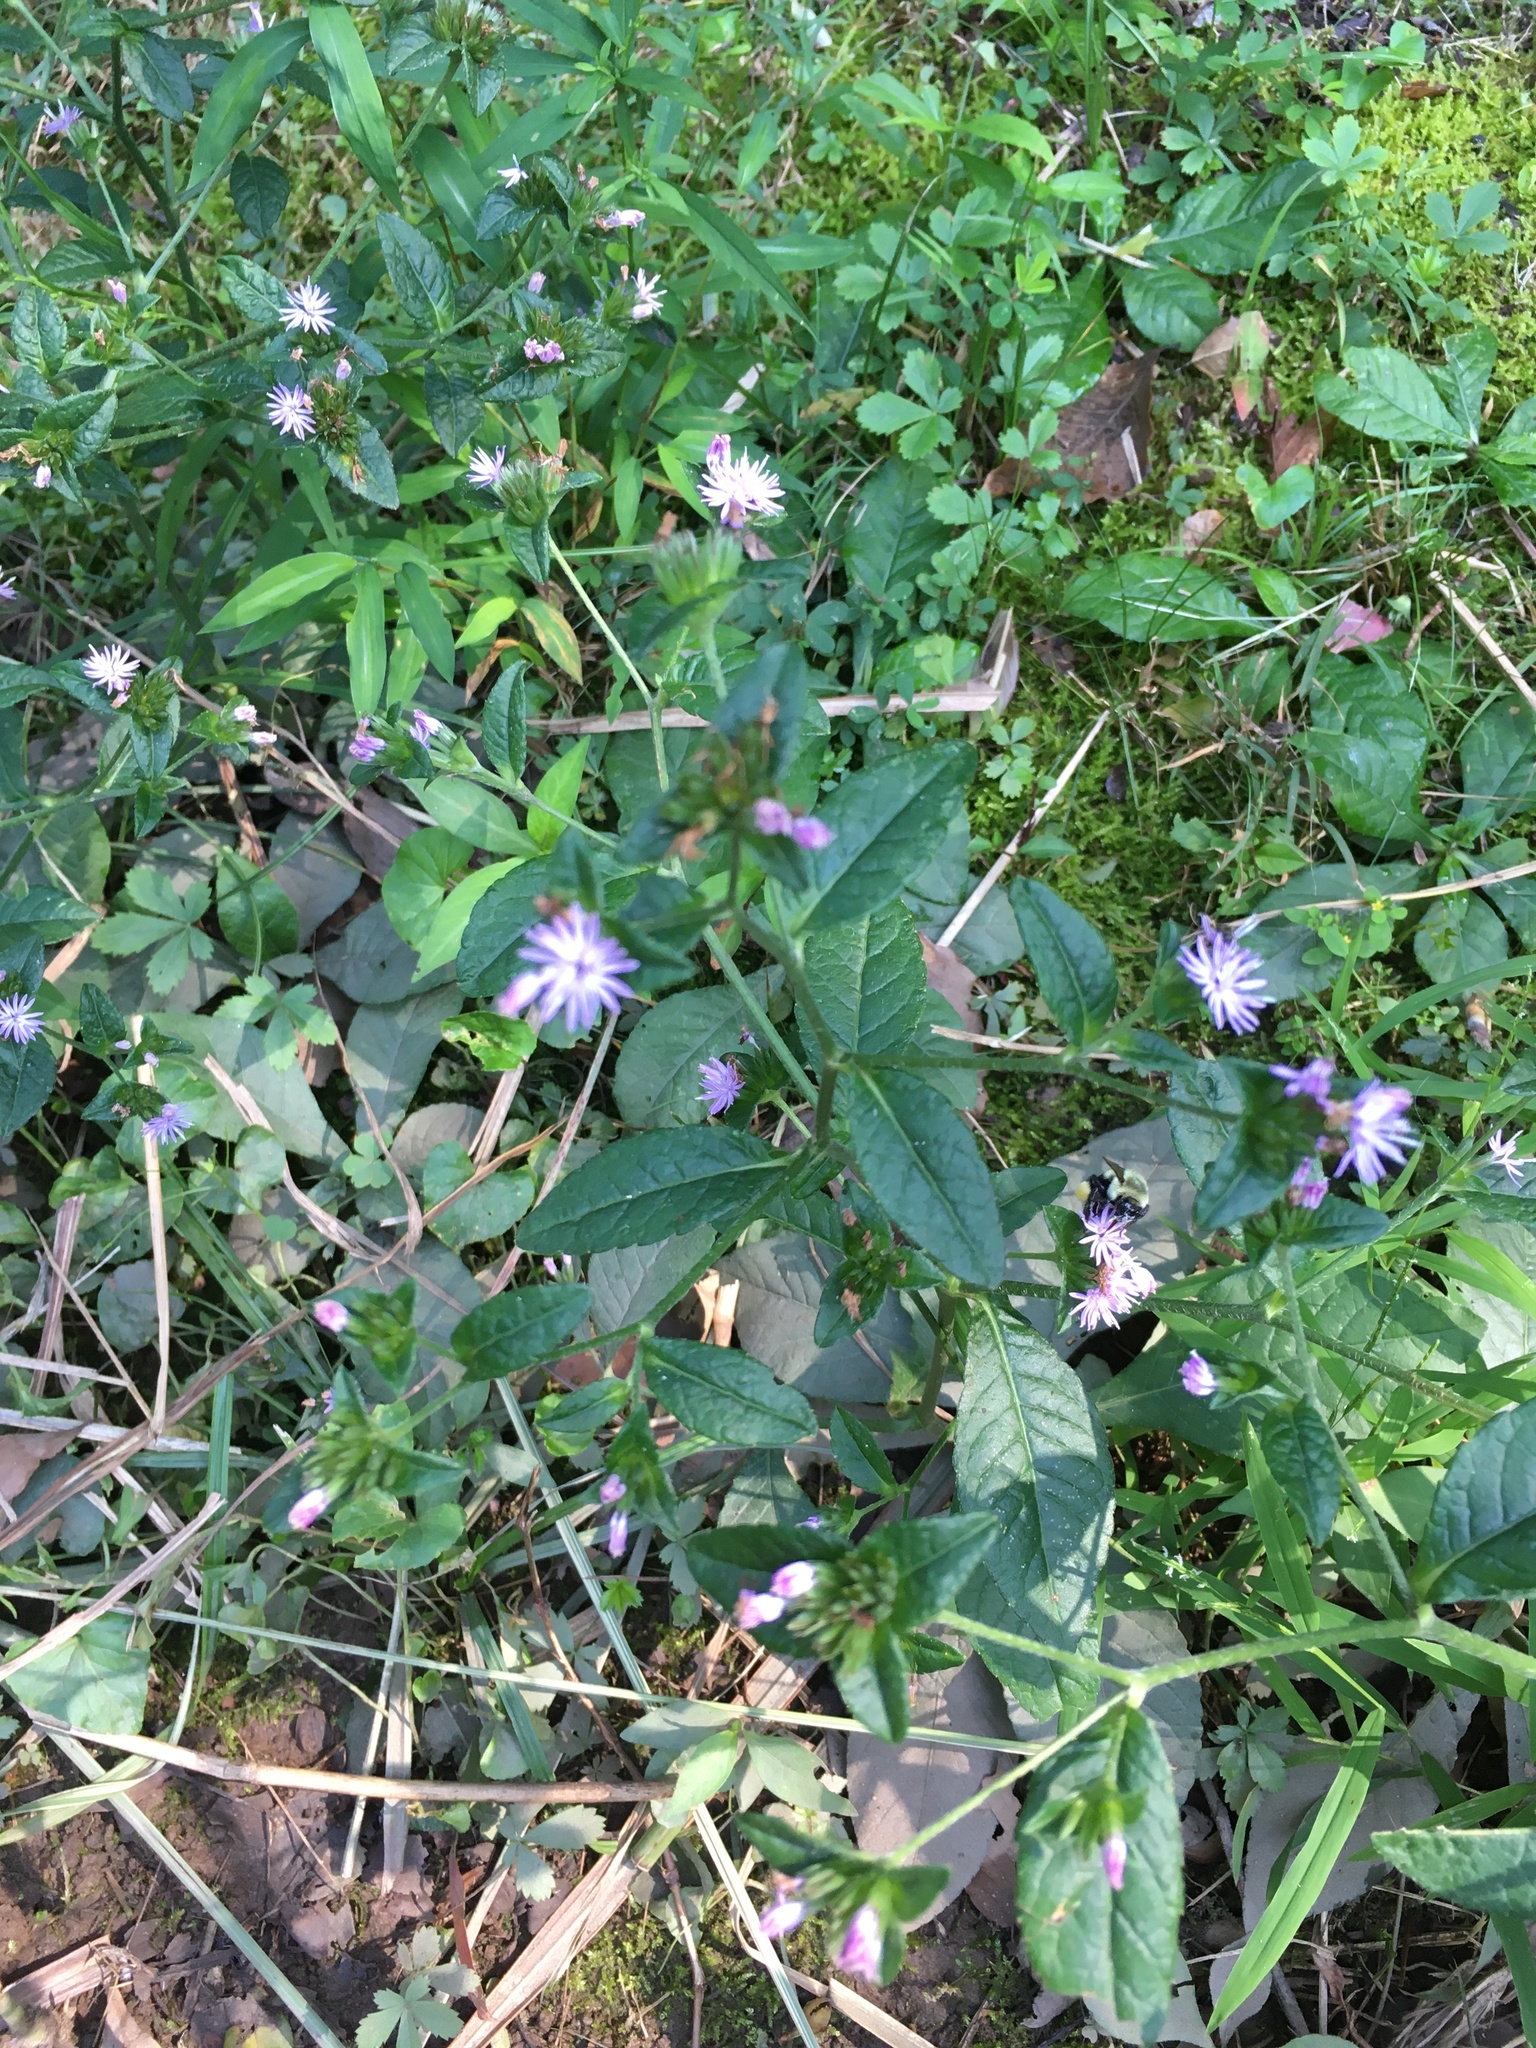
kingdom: Plantae
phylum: Tracheophyta
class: Magnoliopsida
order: Asterales
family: Asteraceae
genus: Elephantopus
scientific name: Elephantopus carolinianus
